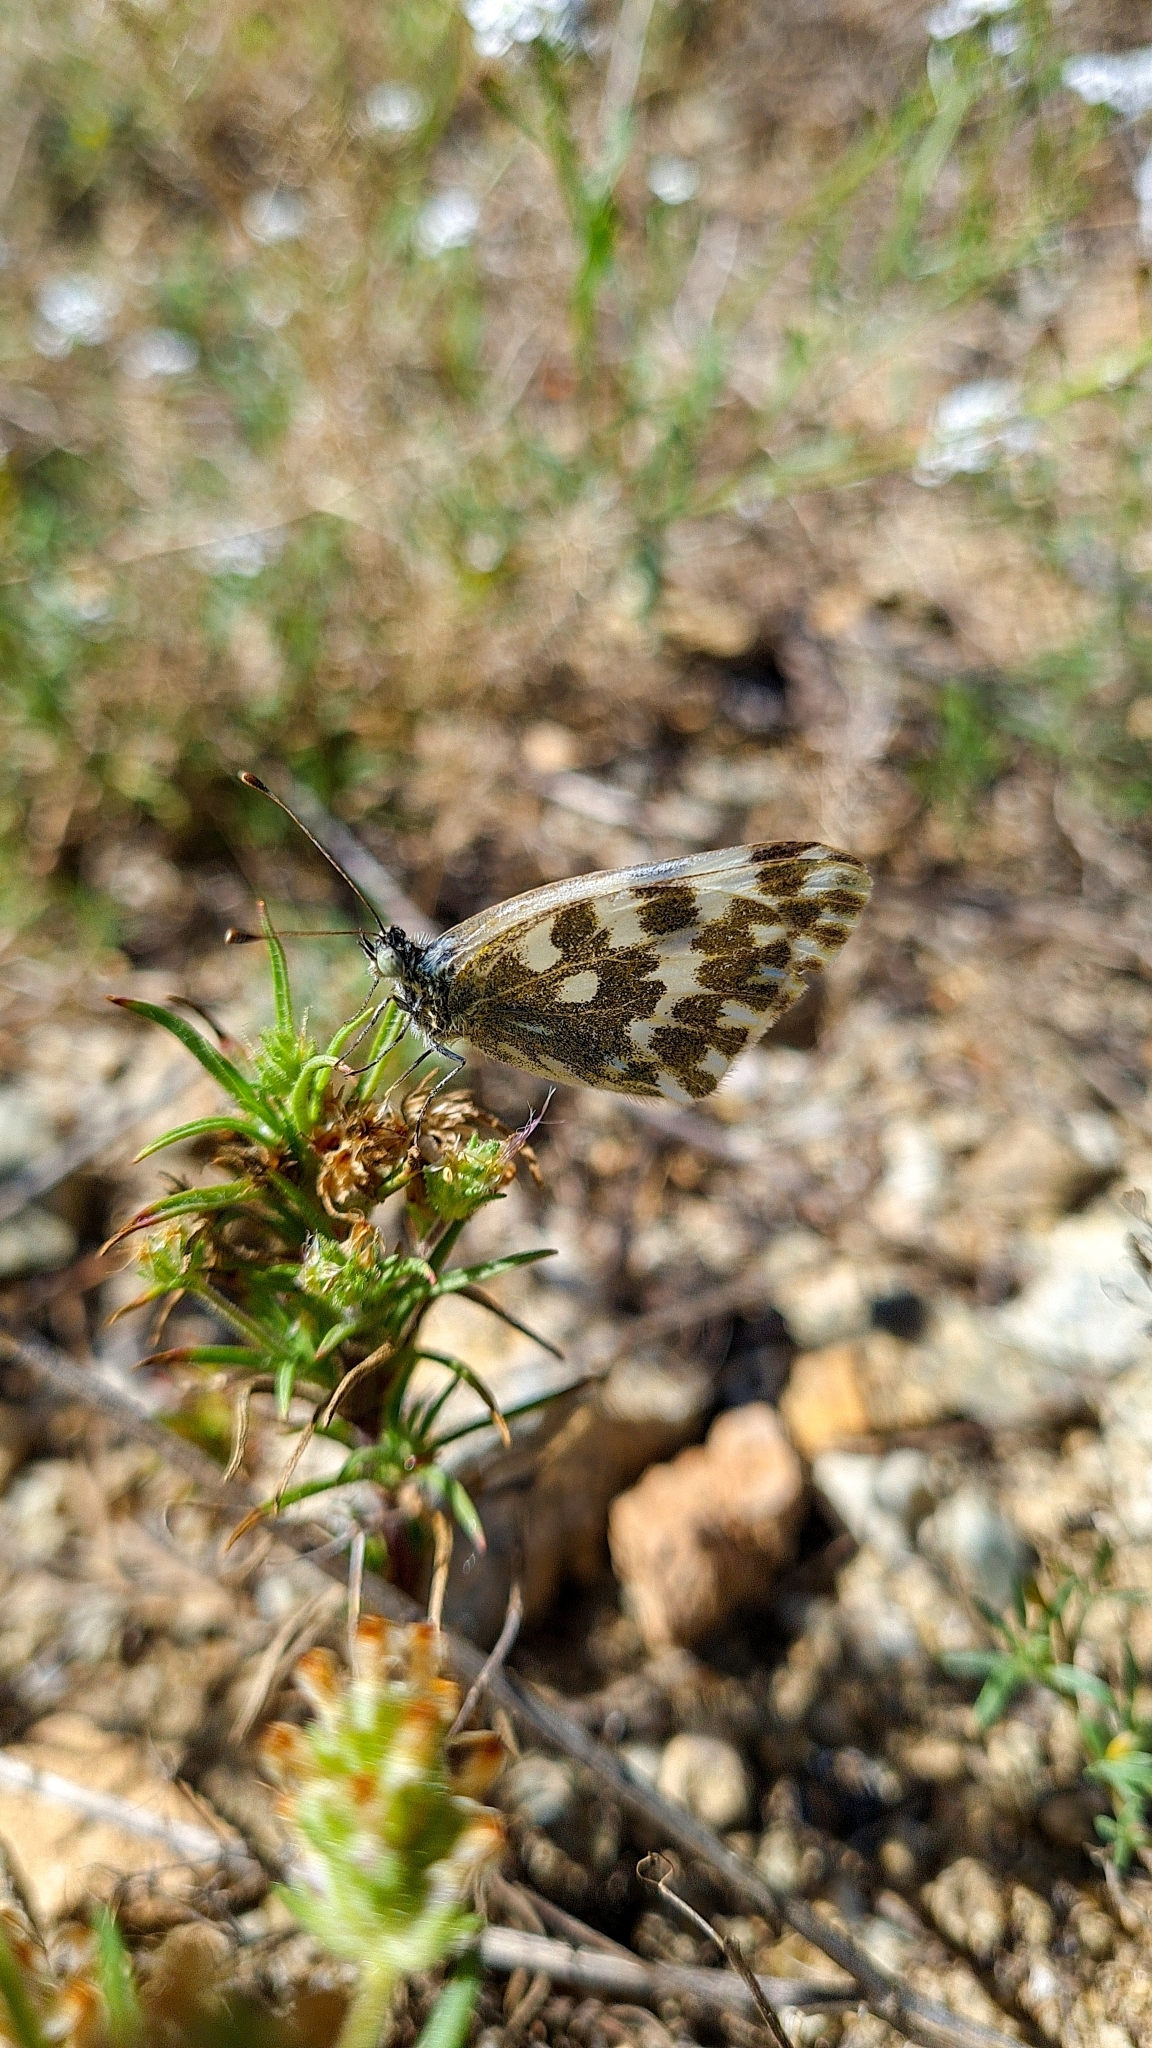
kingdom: Animalia
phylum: Arthropoda
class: Insecta
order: Lepidoptera
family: Pieridae
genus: Pontia
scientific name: Pontia daplidice
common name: Bath white
